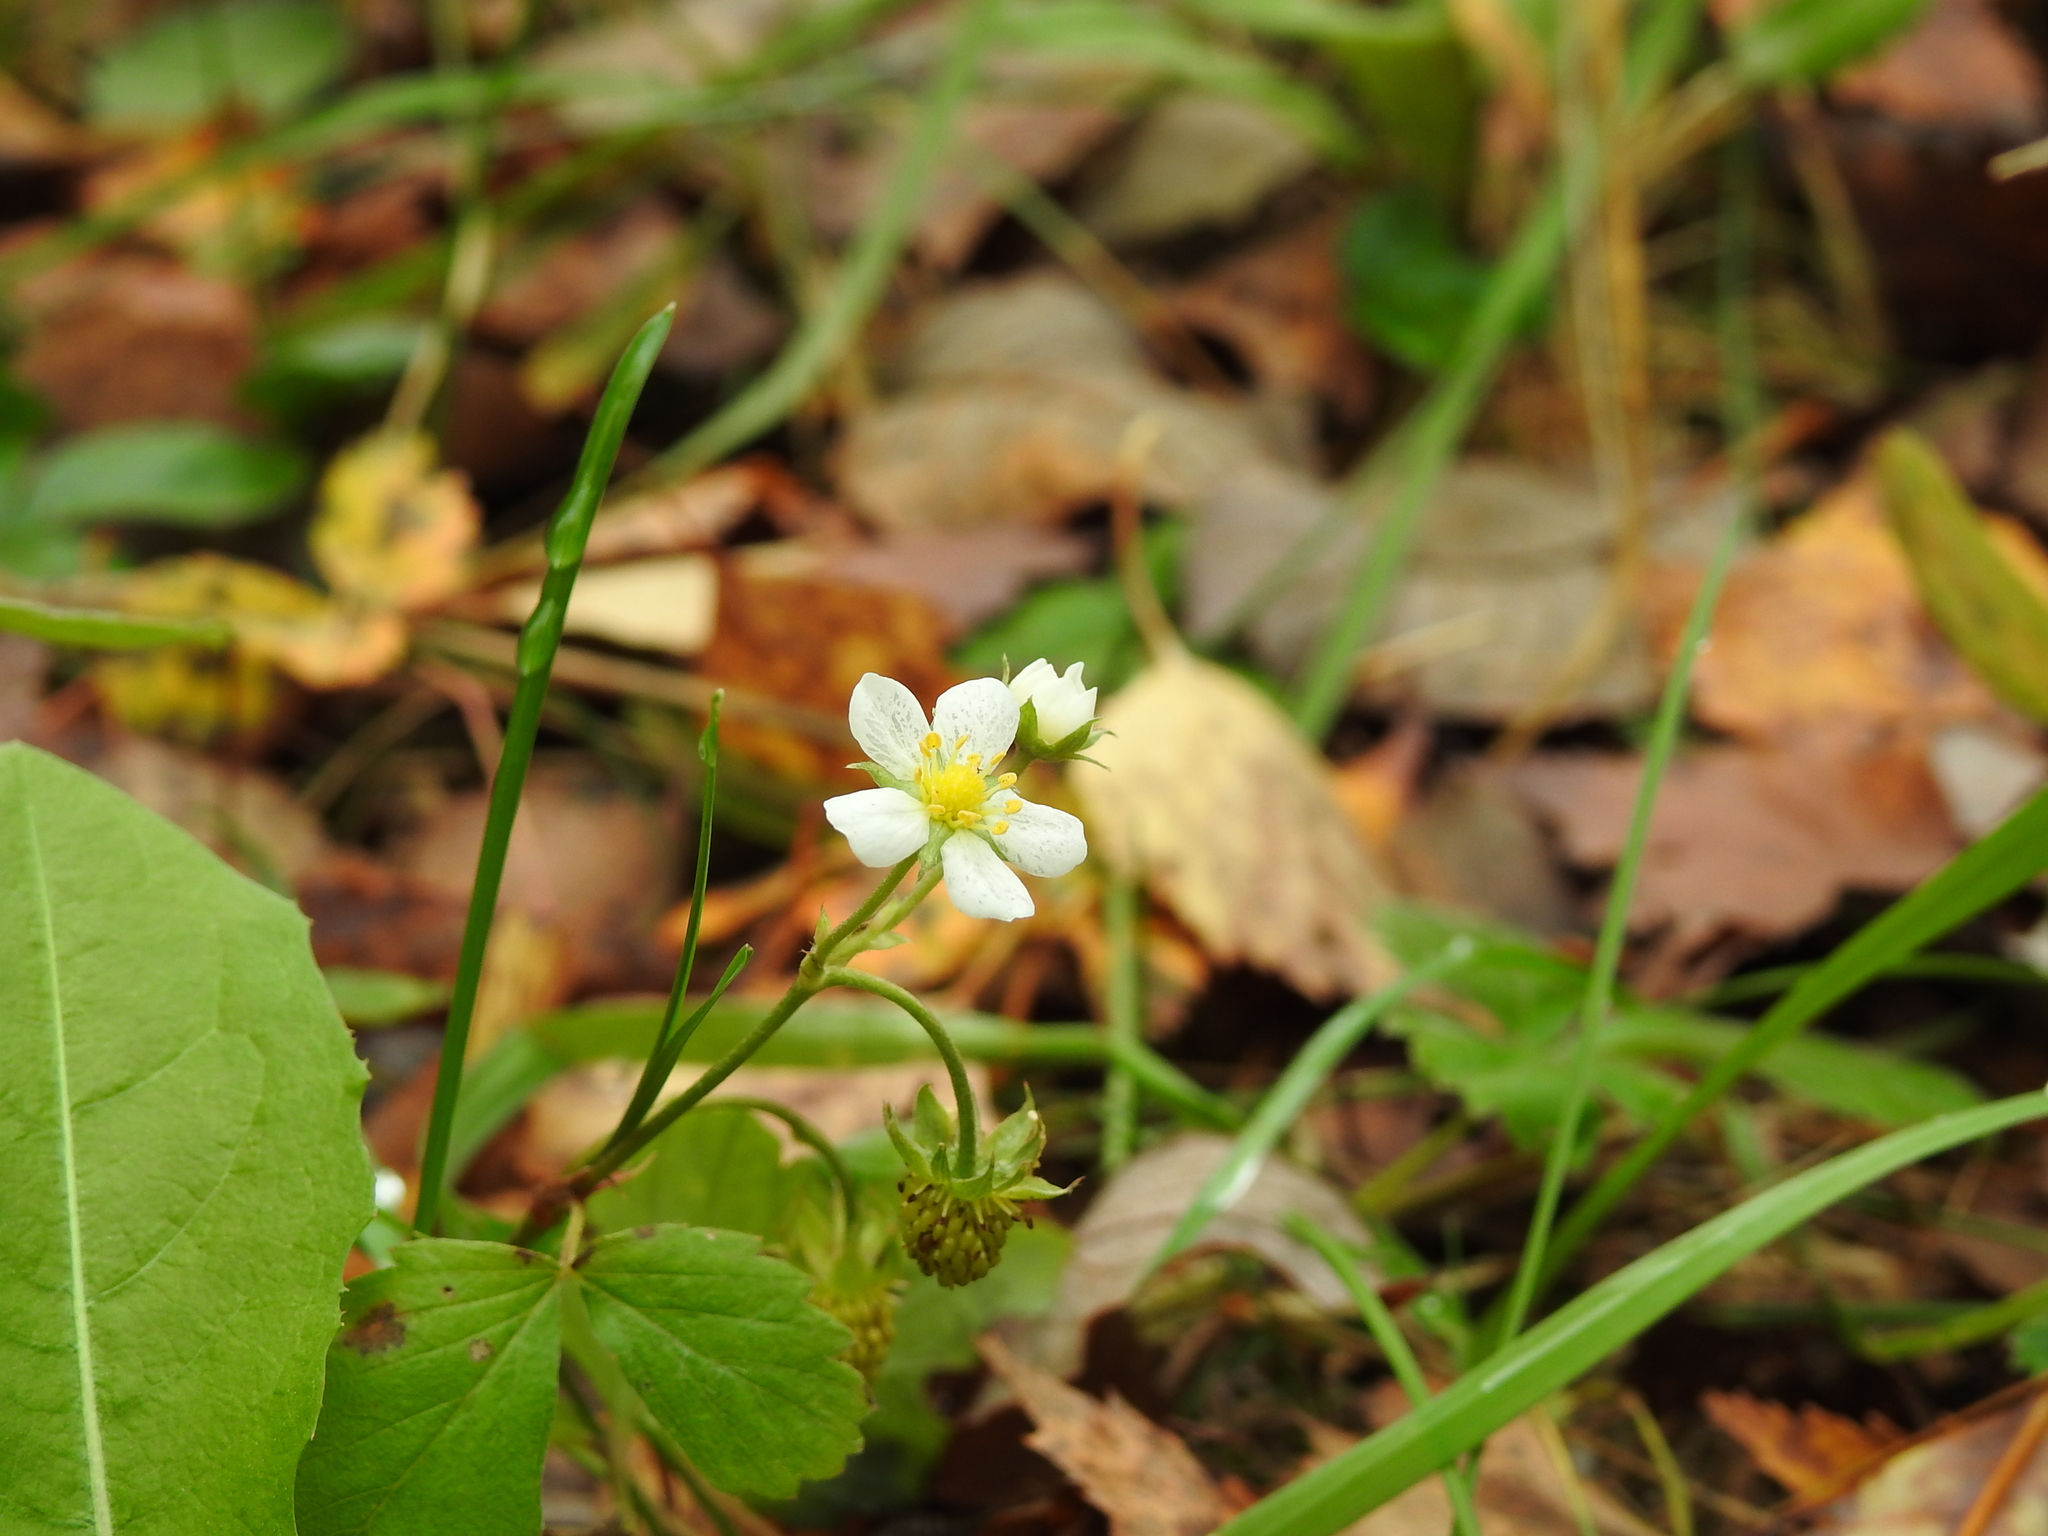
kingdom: Plantae
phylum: Tracheophyta
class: Magnoliopsida
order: Rosales
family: Rosaceae
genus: Fragaria
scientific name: Fragaria vesca
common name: Wild strawberry
